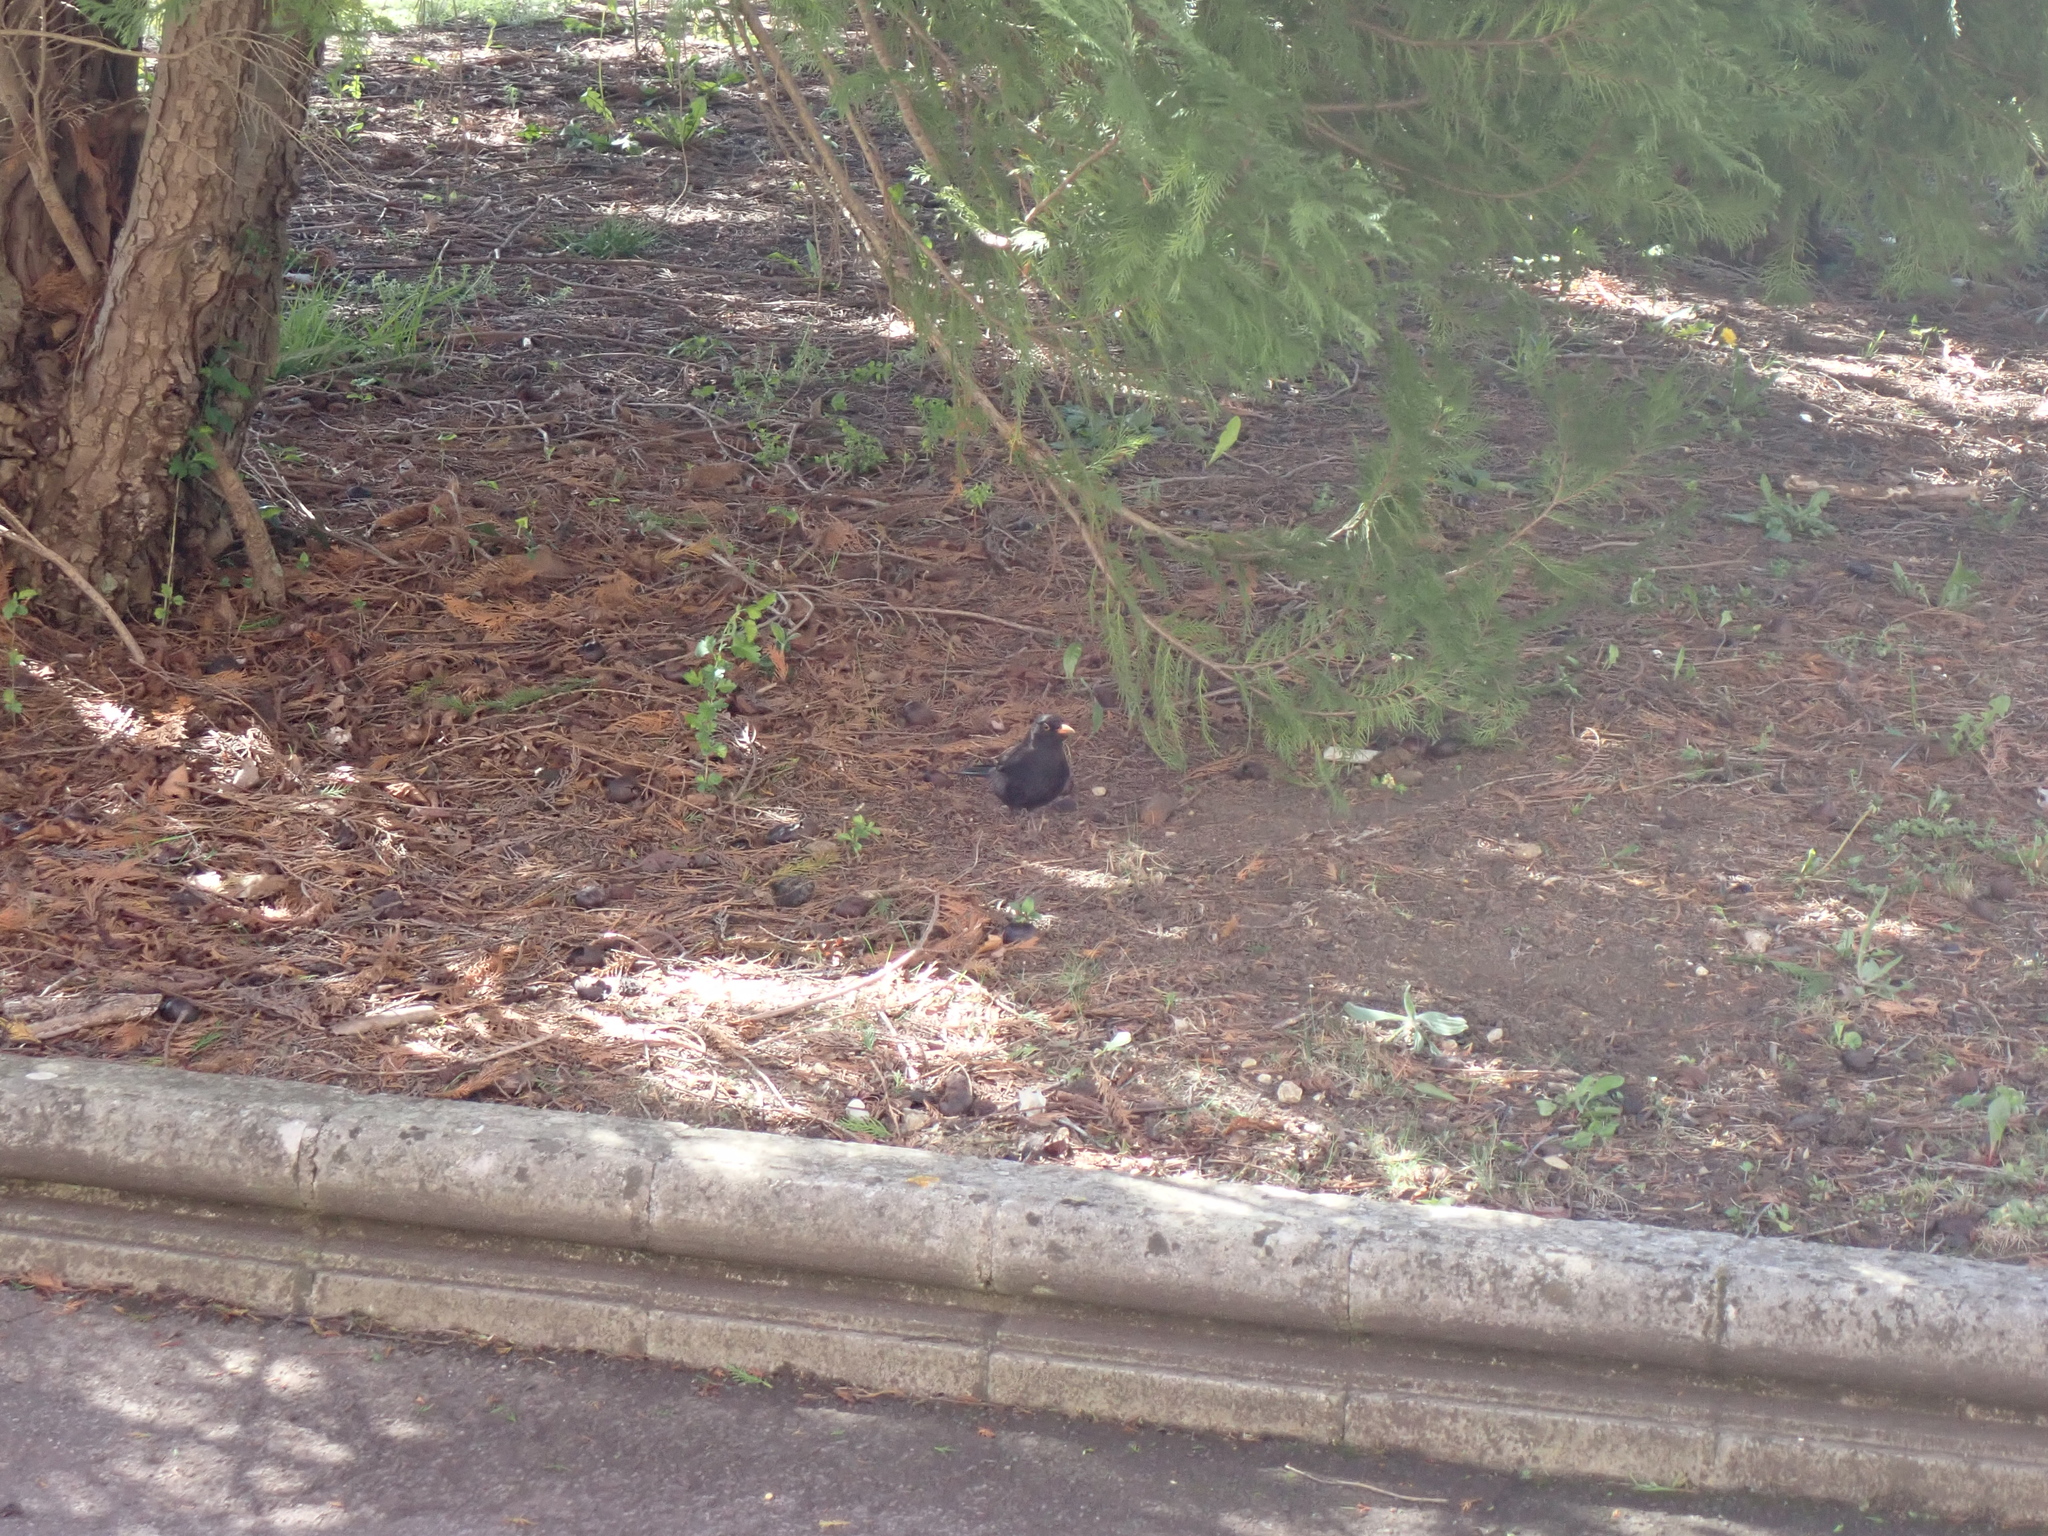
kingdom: Animalia
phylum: Chordata
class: Aves
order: Passeriformes
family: Turdidae
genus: Turdus
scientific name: Turdus merula
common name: Common blackbird
